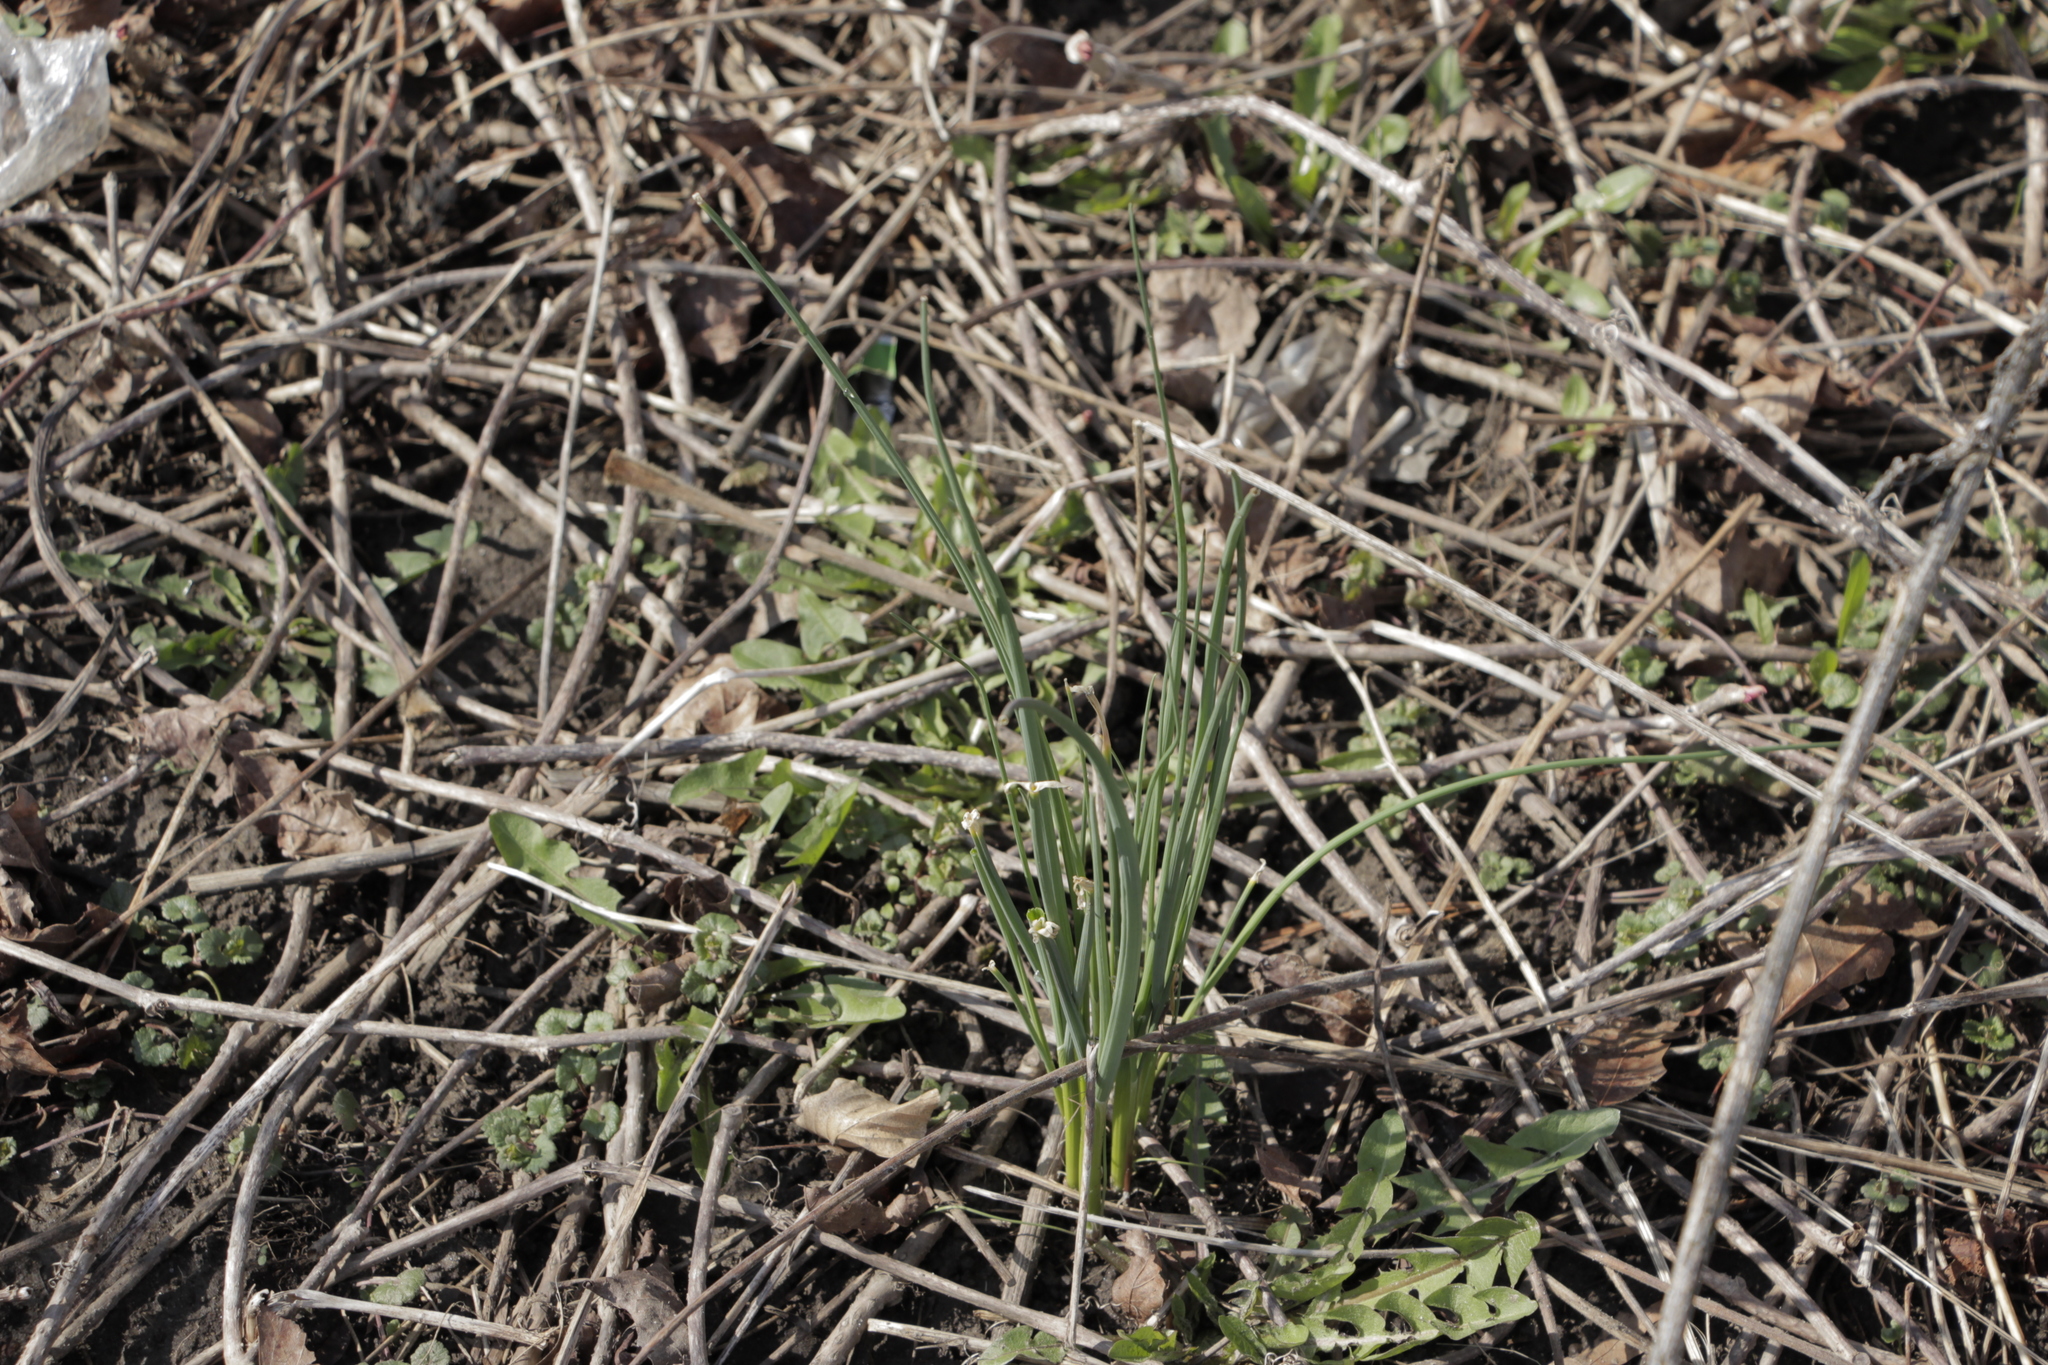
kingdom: Plantae
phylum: Tracheophyta
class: Liliopsida
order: Asparagales
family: Amaryllidaceae
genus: Allium
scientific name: Allium vineale
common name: Crow garlic
